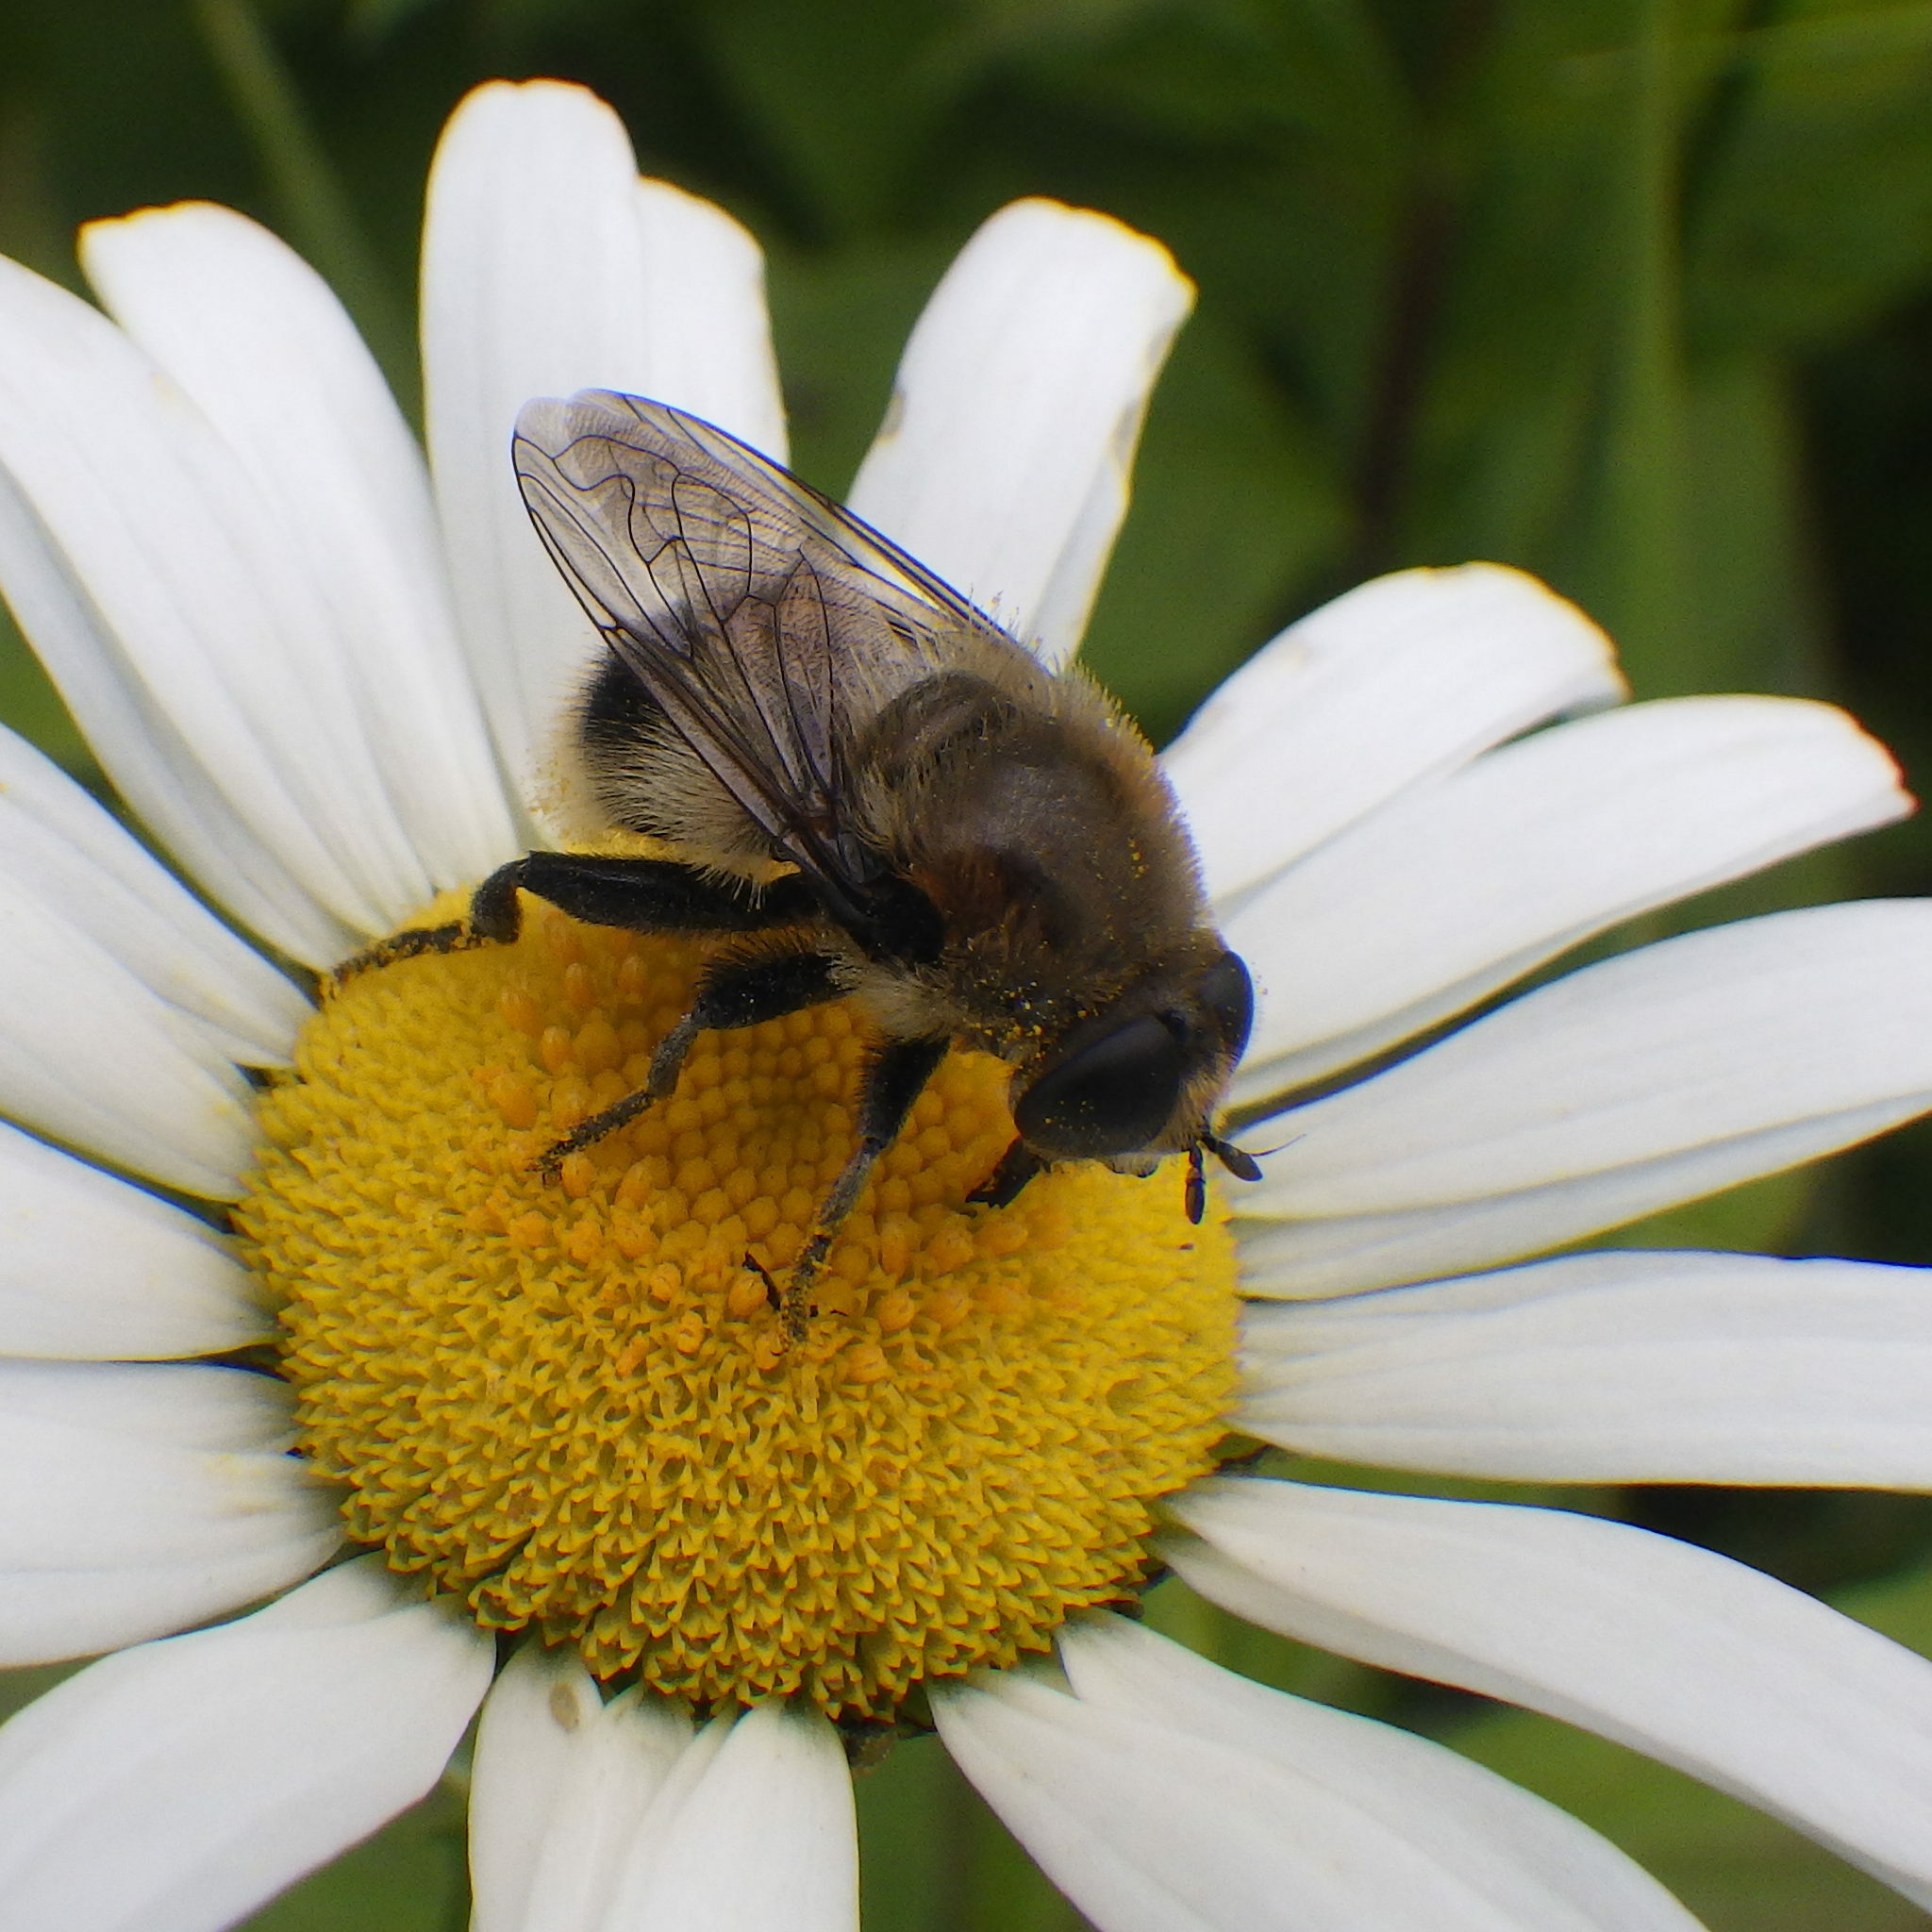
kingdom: Animalia
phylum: Arthropoda
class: Insecta
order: Diptera
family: Syrphidae
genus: Merodon
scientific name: Merodon equestris
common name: Greater bulb-fly
